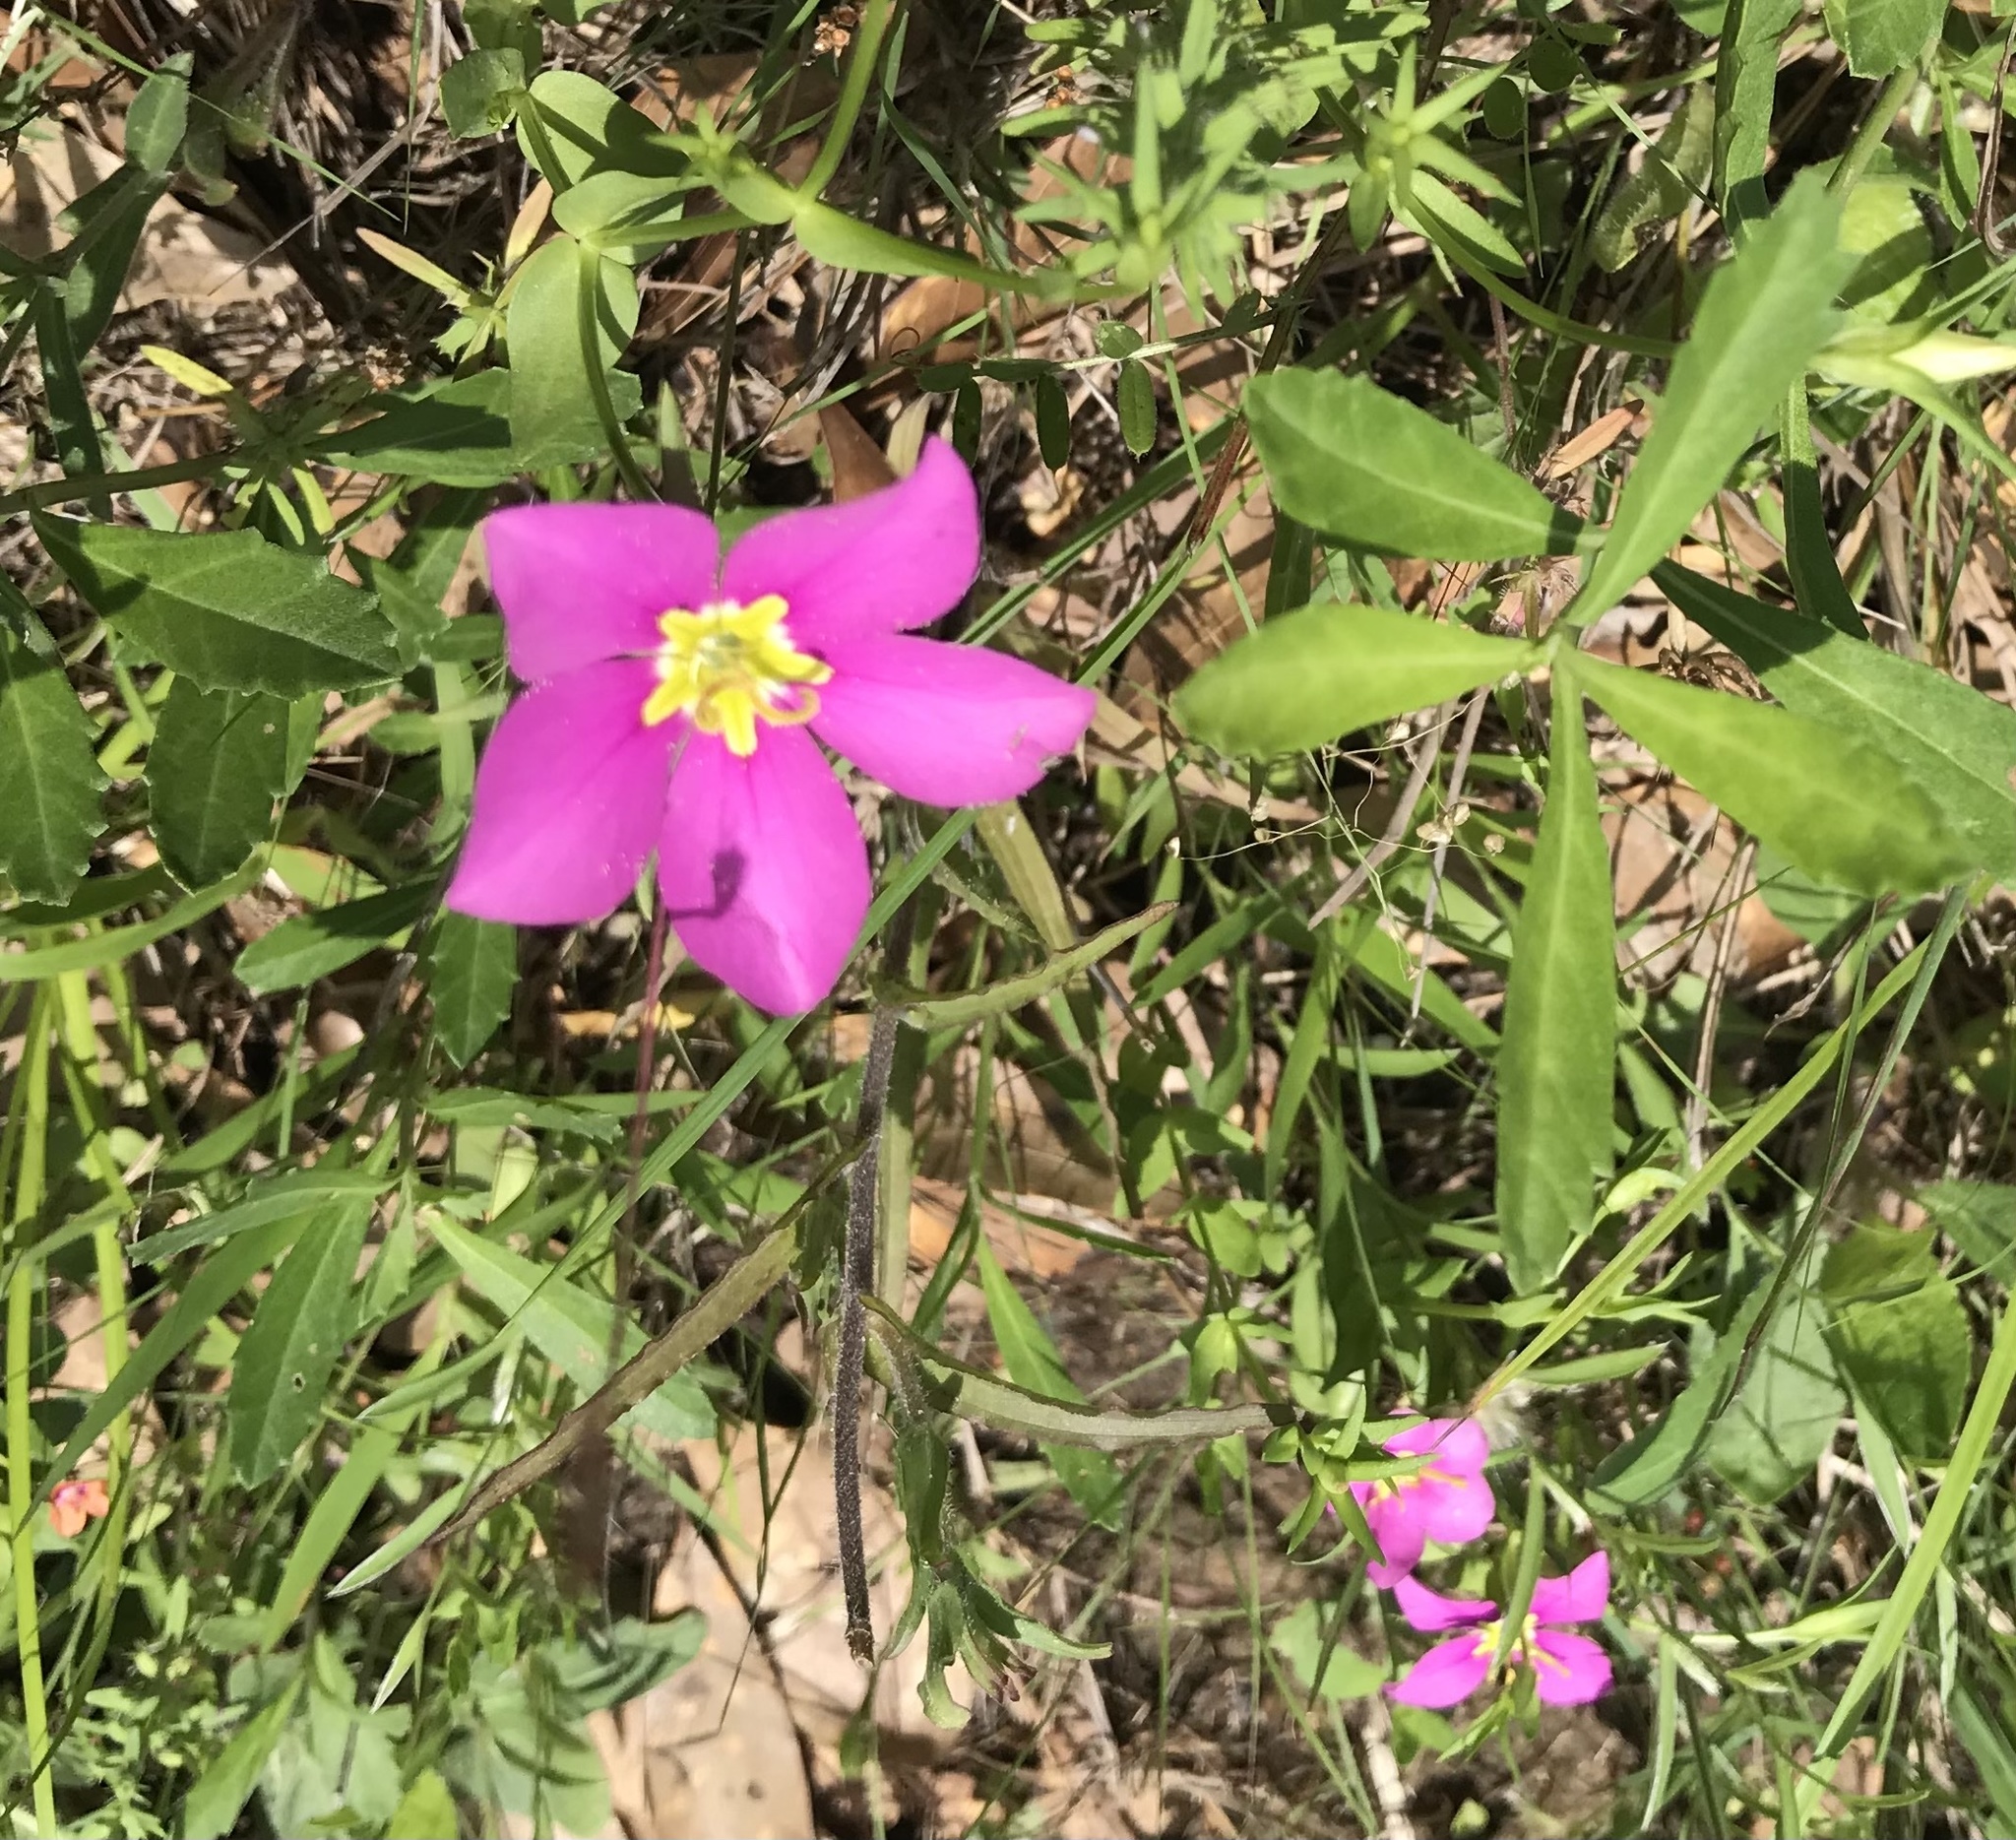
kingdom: Plantae
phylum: Tracheophyta
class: Magnoliopsida
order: Gentianales
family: Gentianaceae
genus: Sabatia
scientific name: Sabatia campestris
